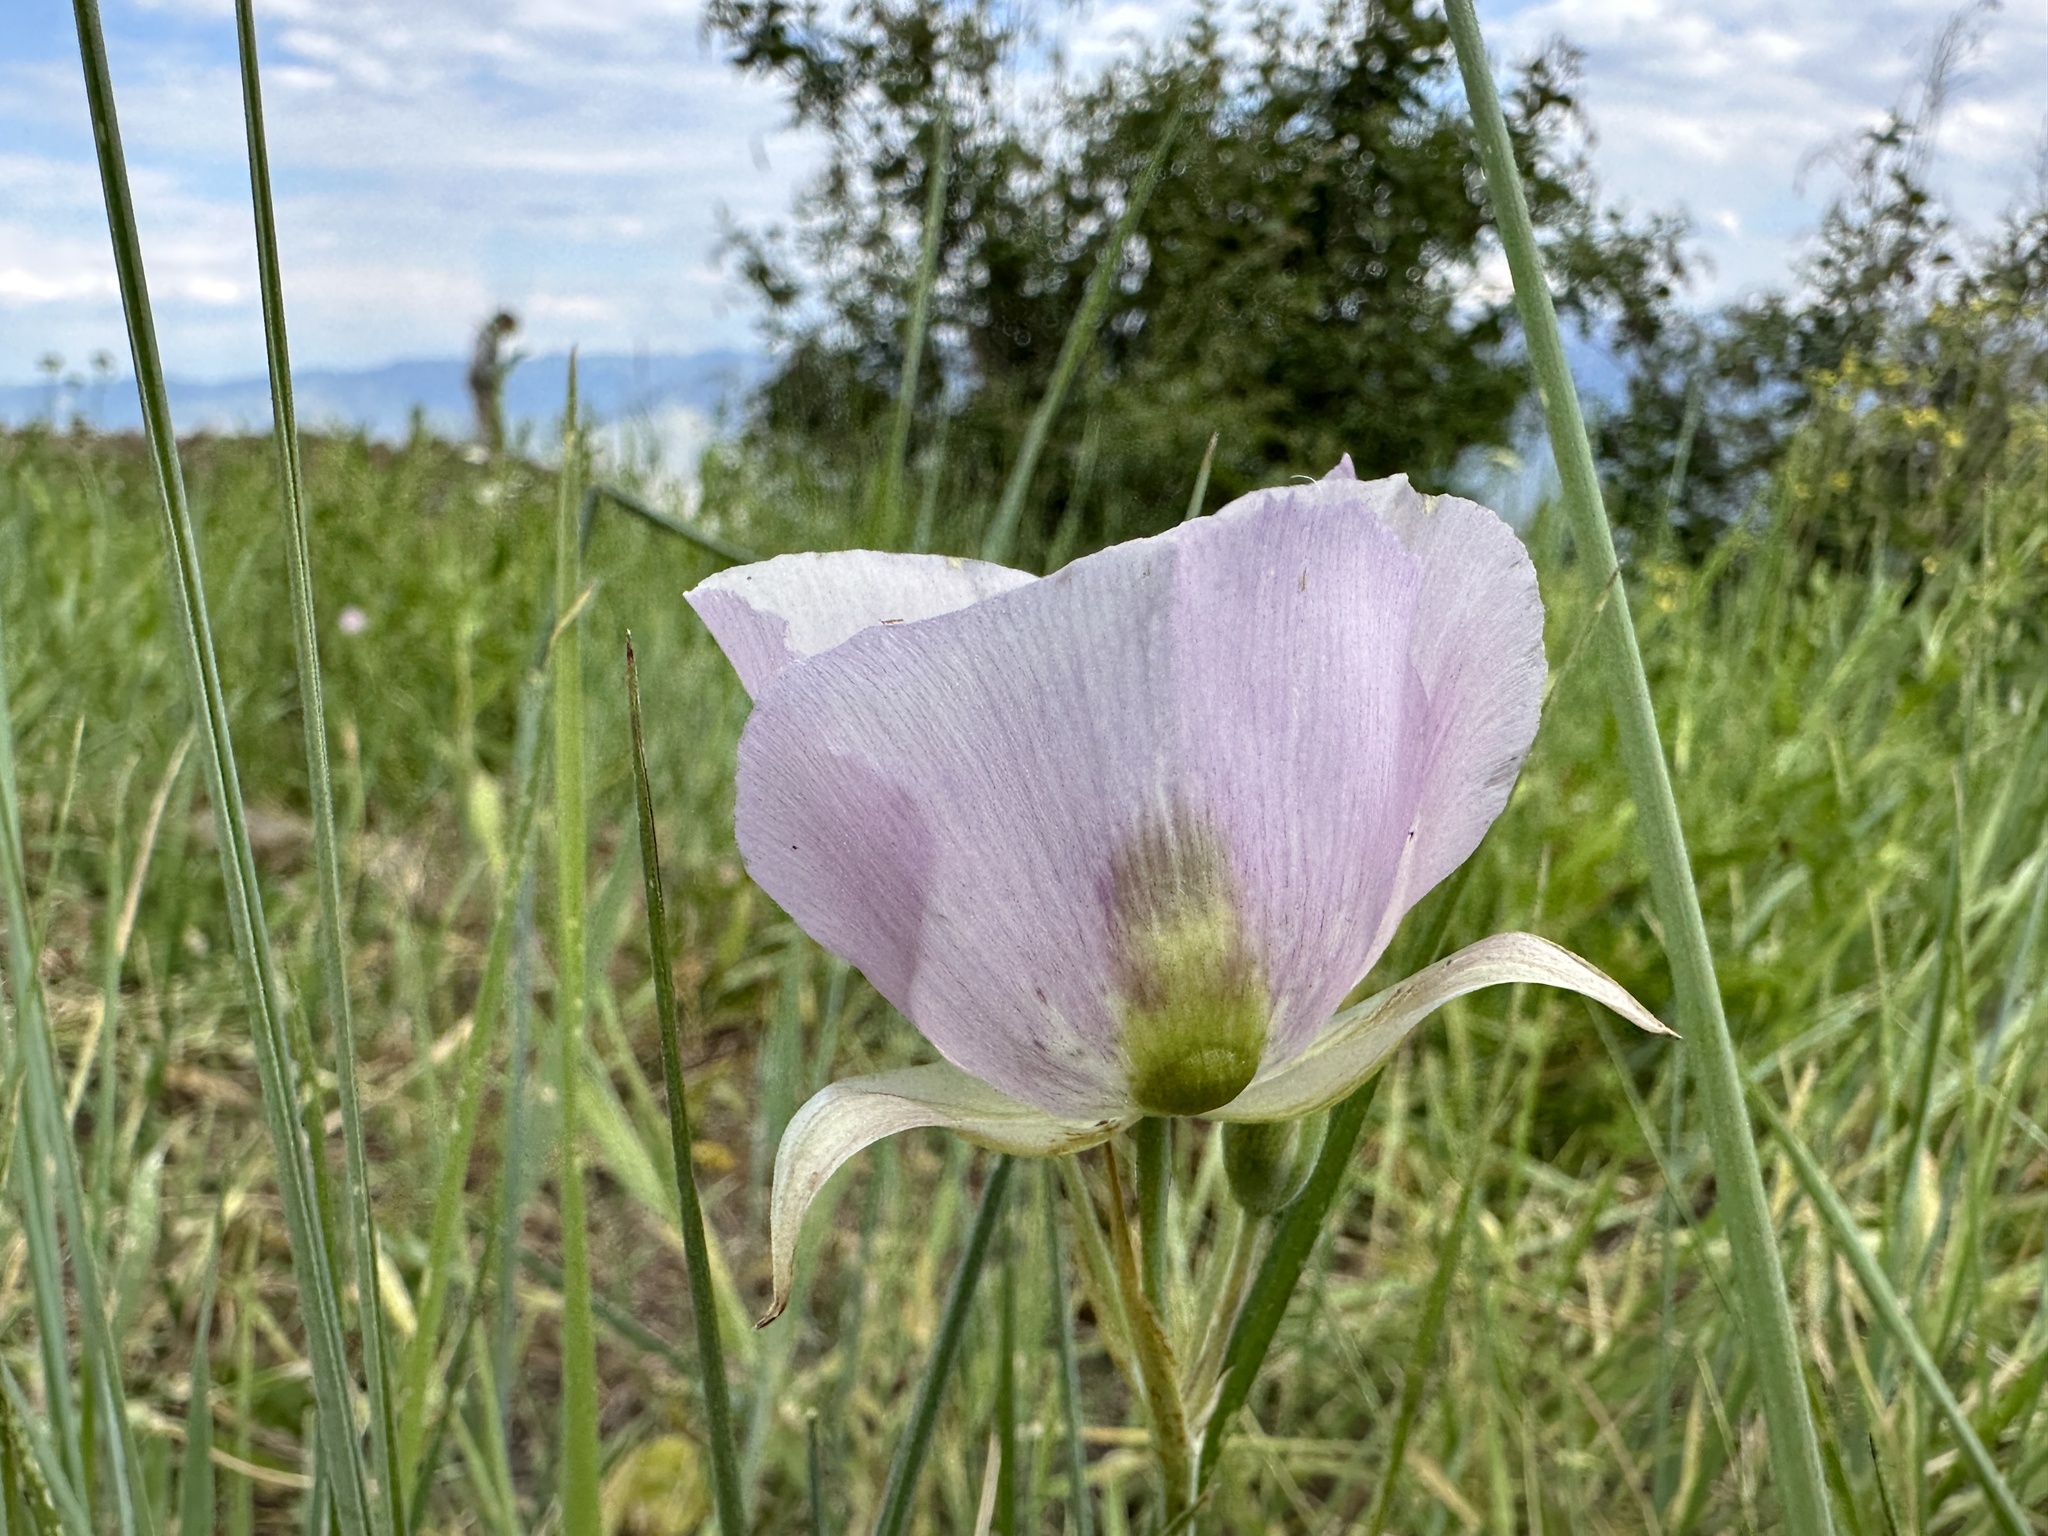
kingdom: Plantae
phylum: Tracheophyta
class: Liliopsida
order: Liliales
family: Liliaceae
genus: Calochortus
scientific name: Calochortus eurycarpus
